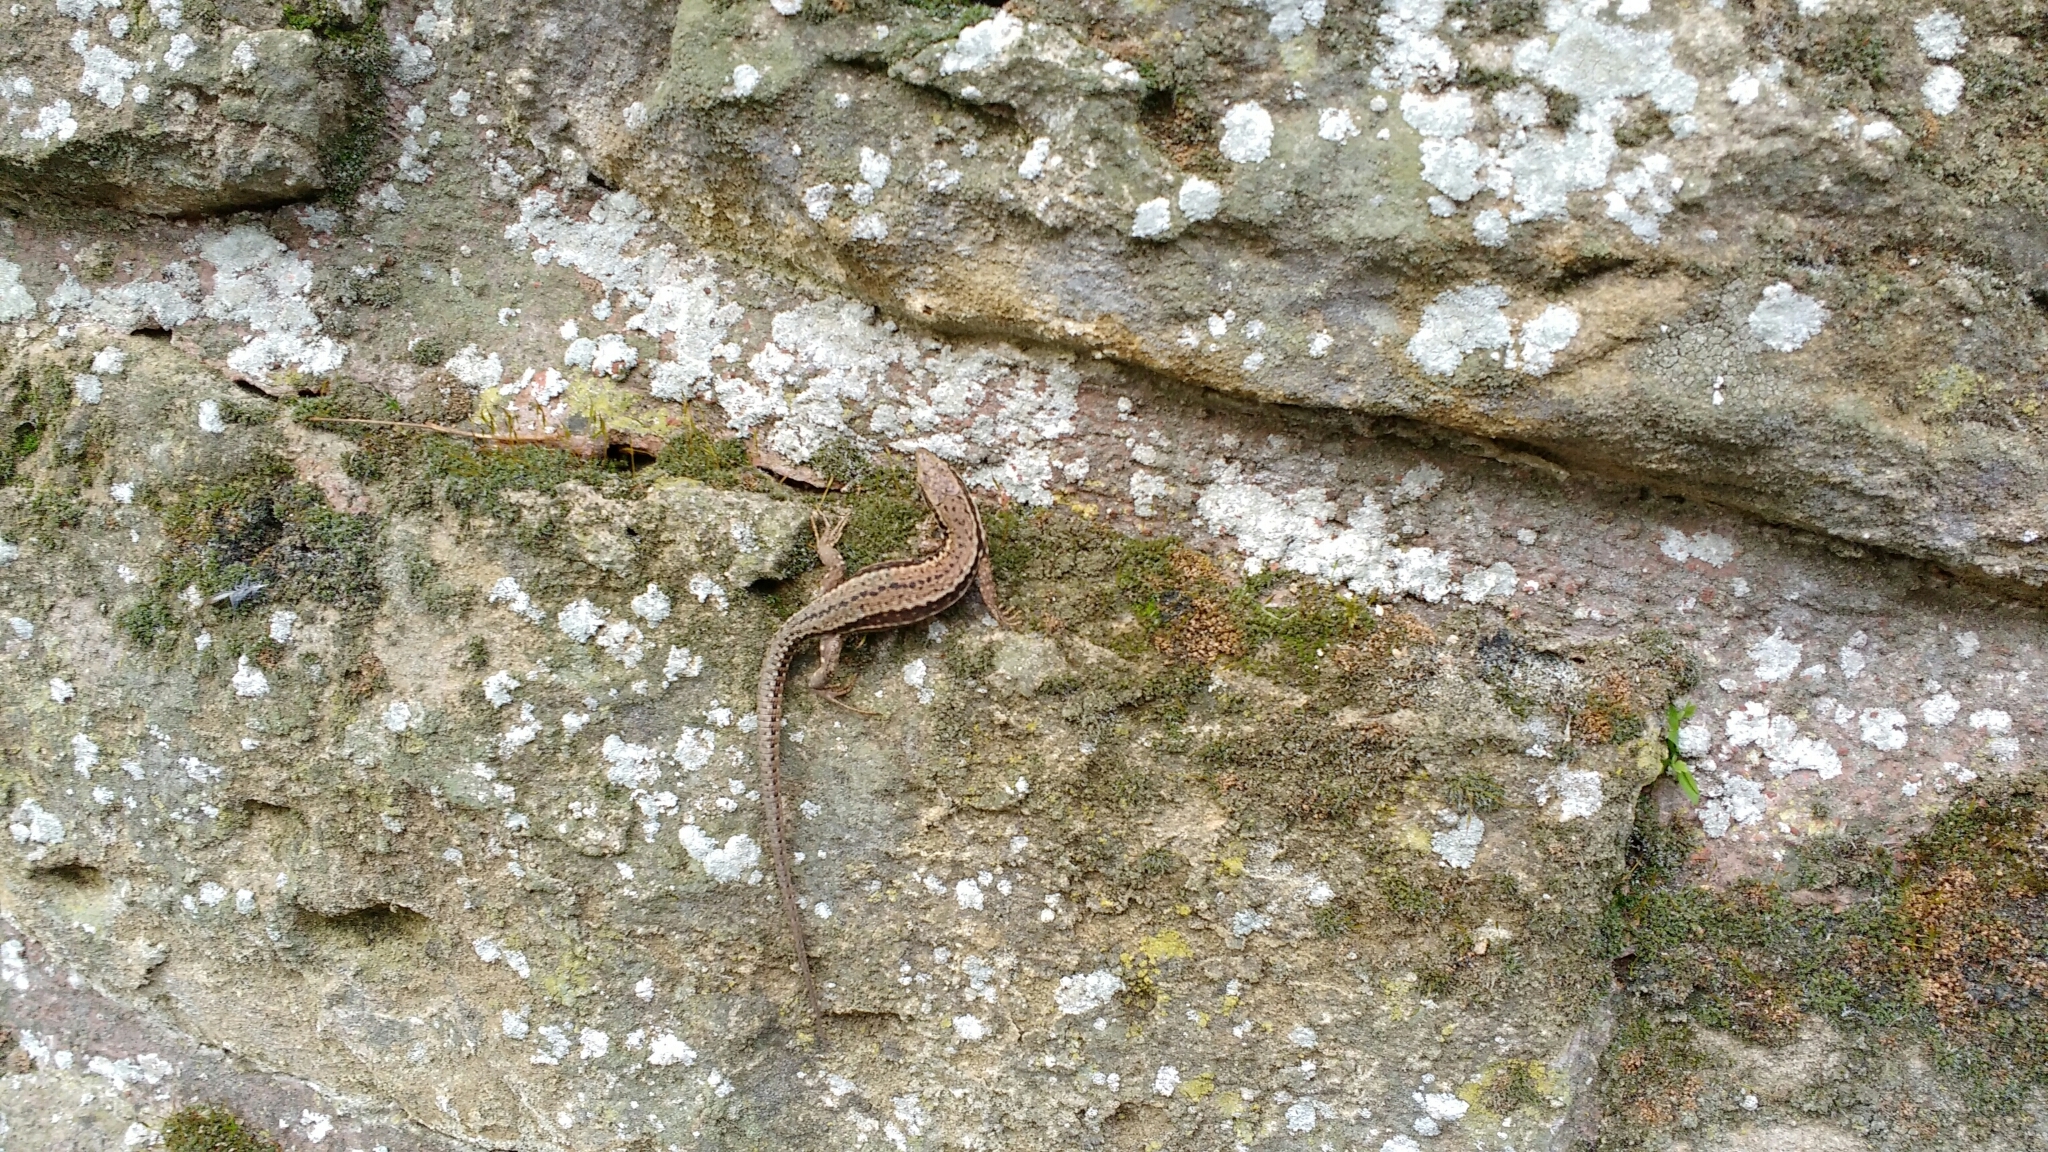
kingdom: Animalia
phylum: Chordata
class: Squamata
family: Lacertidae
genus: Podarcis
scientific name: Podarcis muralis
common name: Common wall lizard
